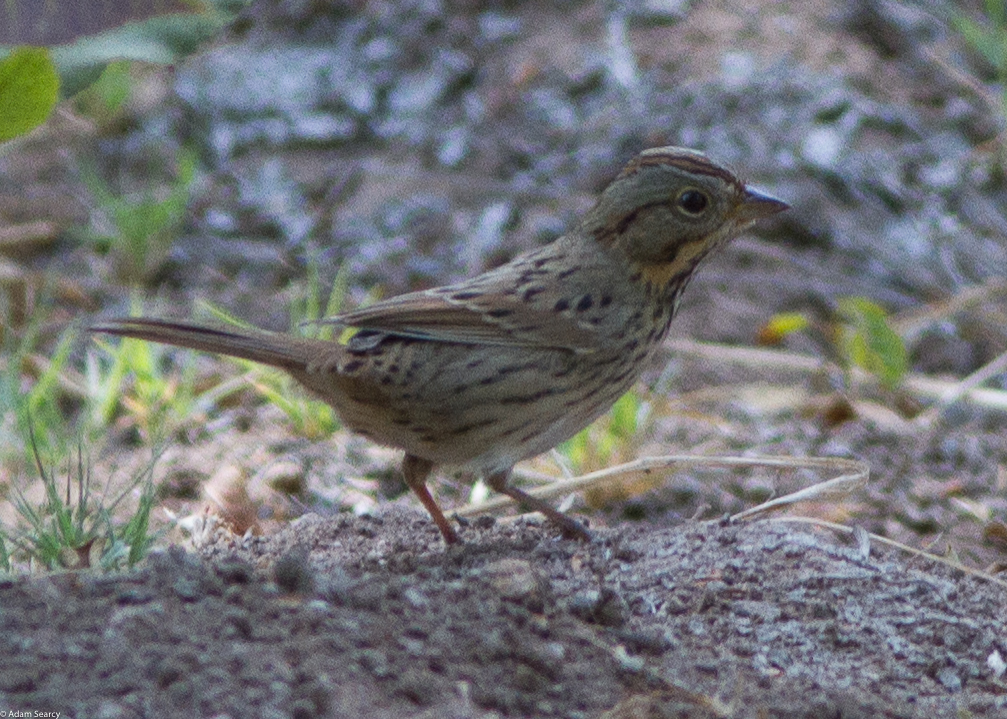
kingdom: Animalia
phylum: Chordata
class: Aves
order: Passeriformes
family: Passerellidae
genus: Melospiza
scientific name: Melospiza lincolnii
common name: Lincoln's sparrow
